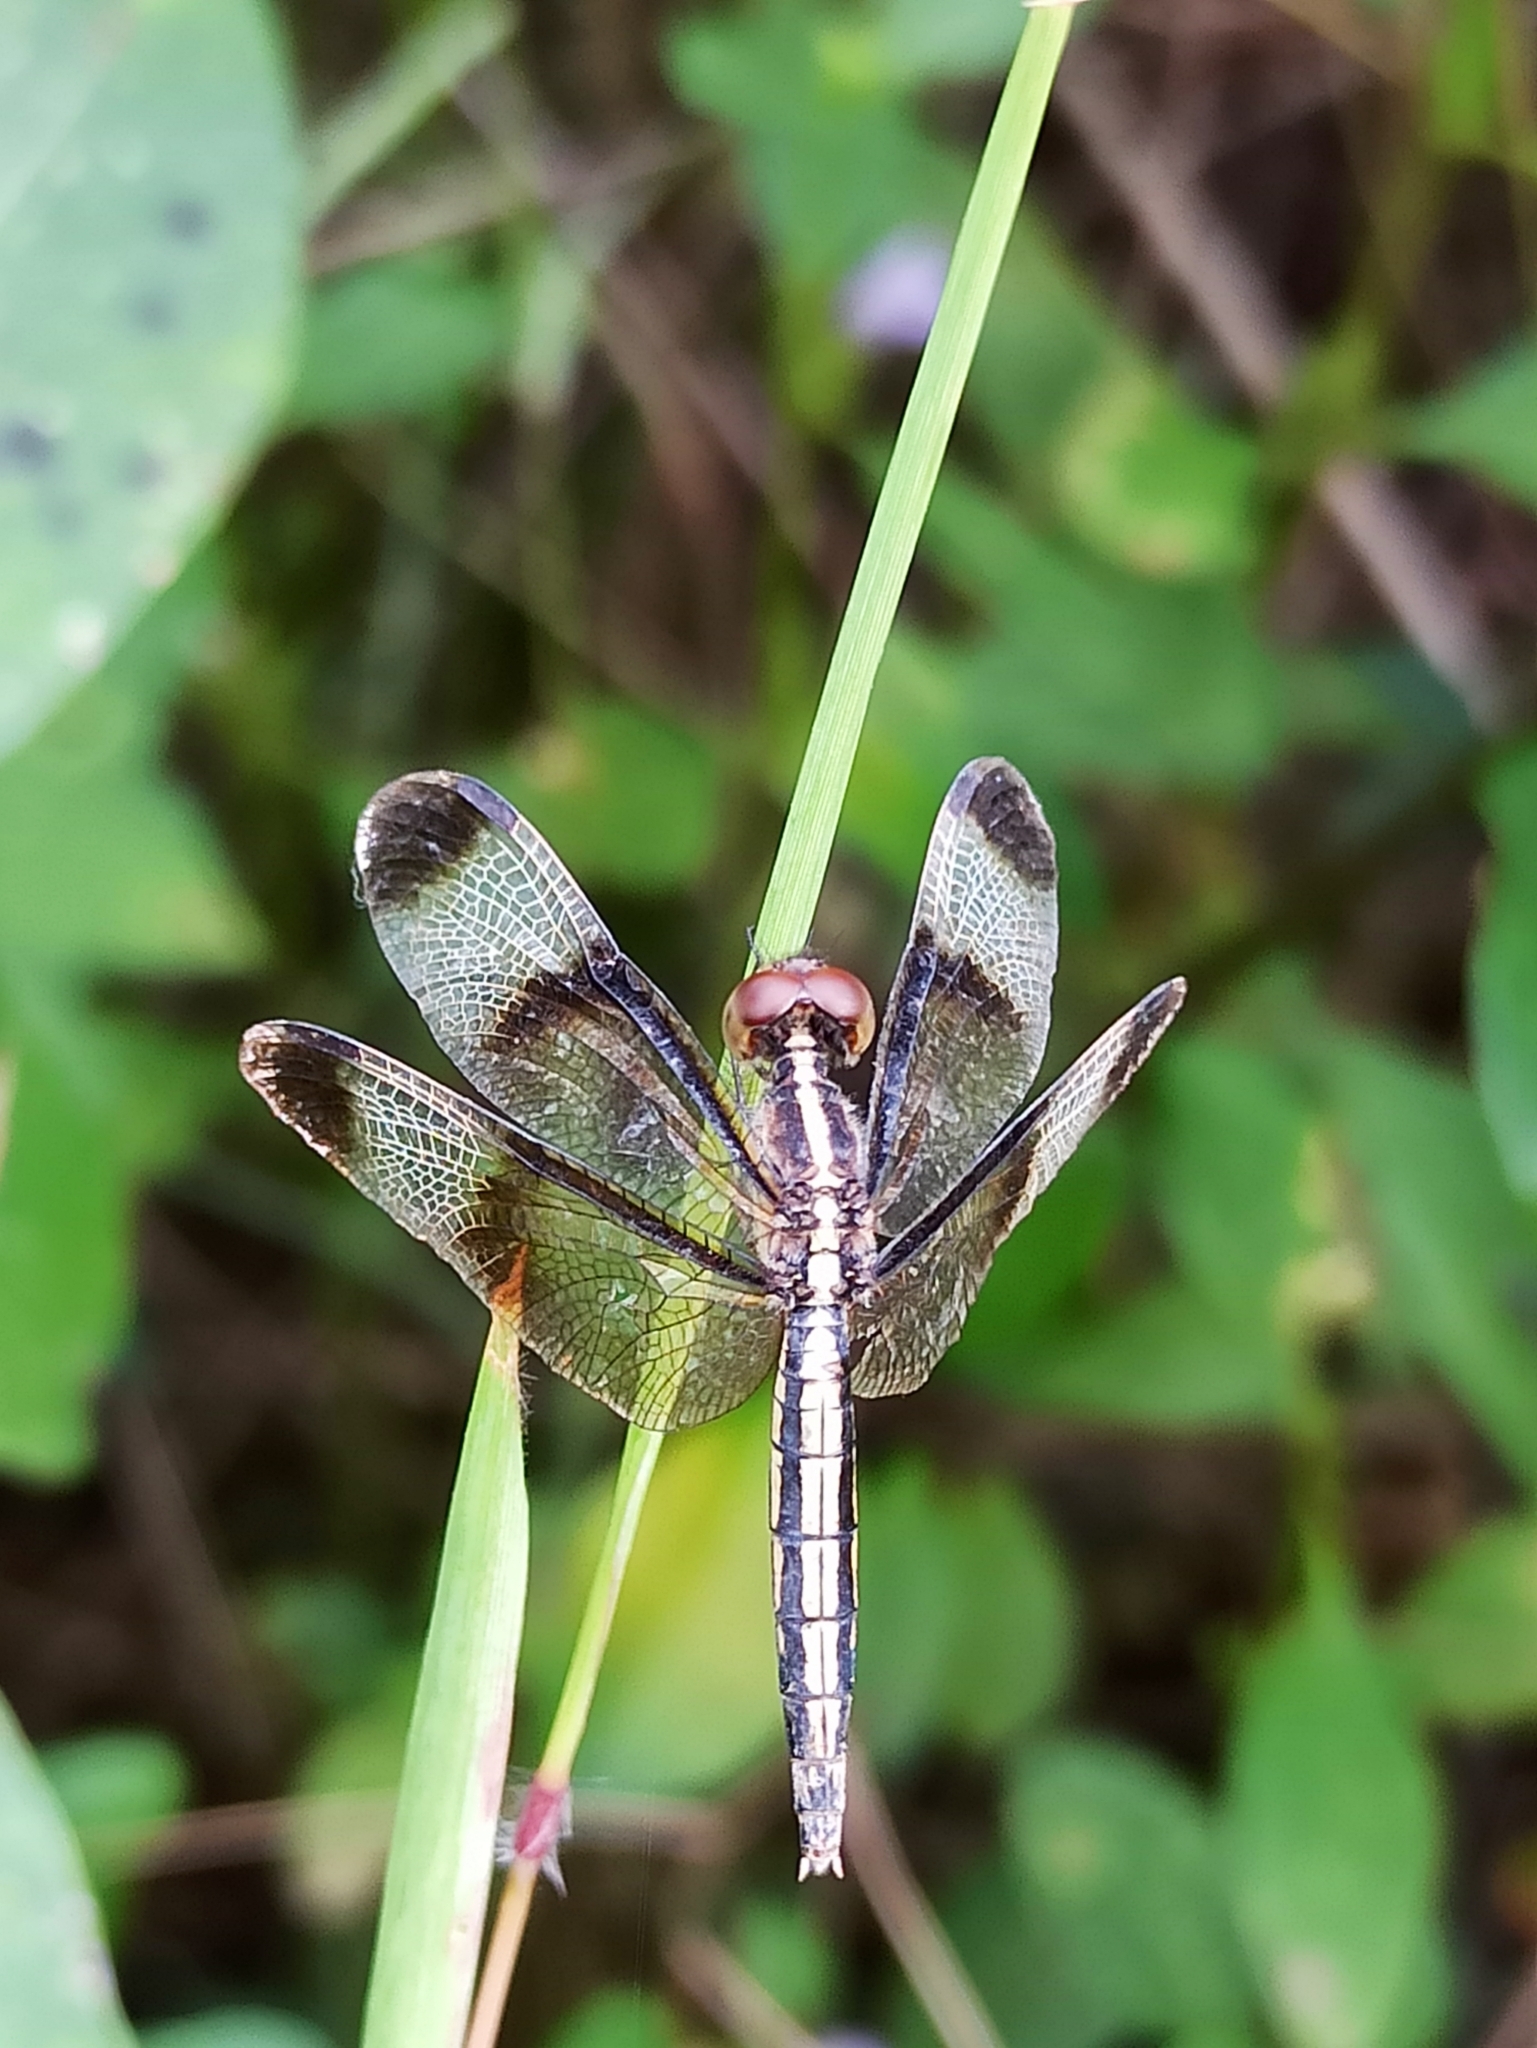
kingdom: Animalia
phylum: Arthropoda
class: Insecta
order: Odonata
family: Libellulidae
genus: Neurothemis
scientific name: Neurothemis tullia
